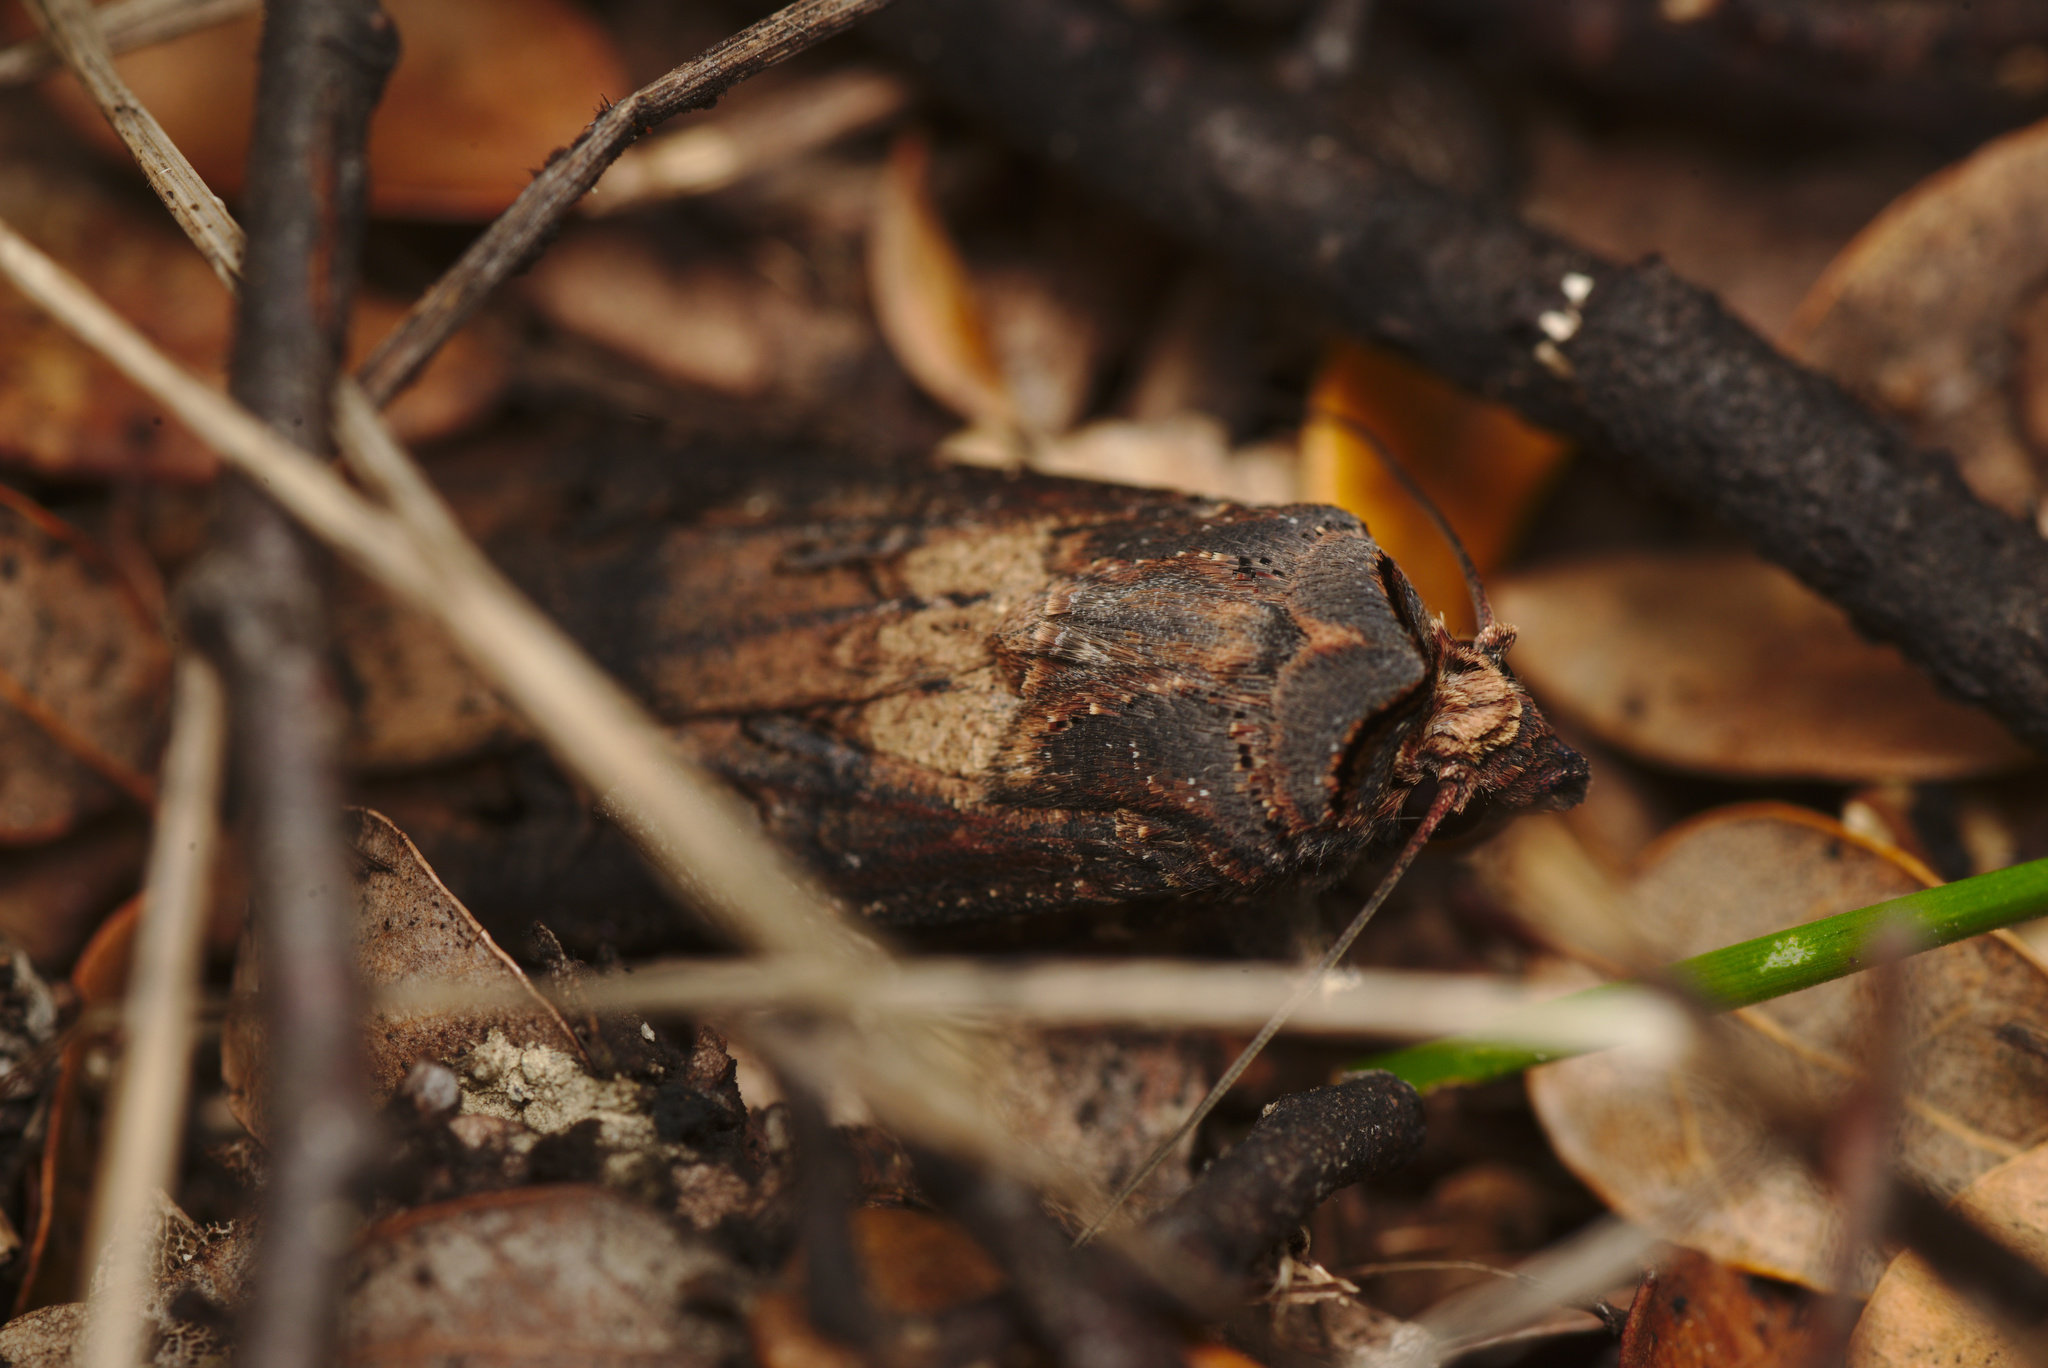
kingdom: Animalia
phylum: Arthropoda
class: Insecta
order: Lepidoptera
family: Noctuidae
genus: Agrotis
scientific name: Agrotis ipsilon
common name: Dark sword-grass
